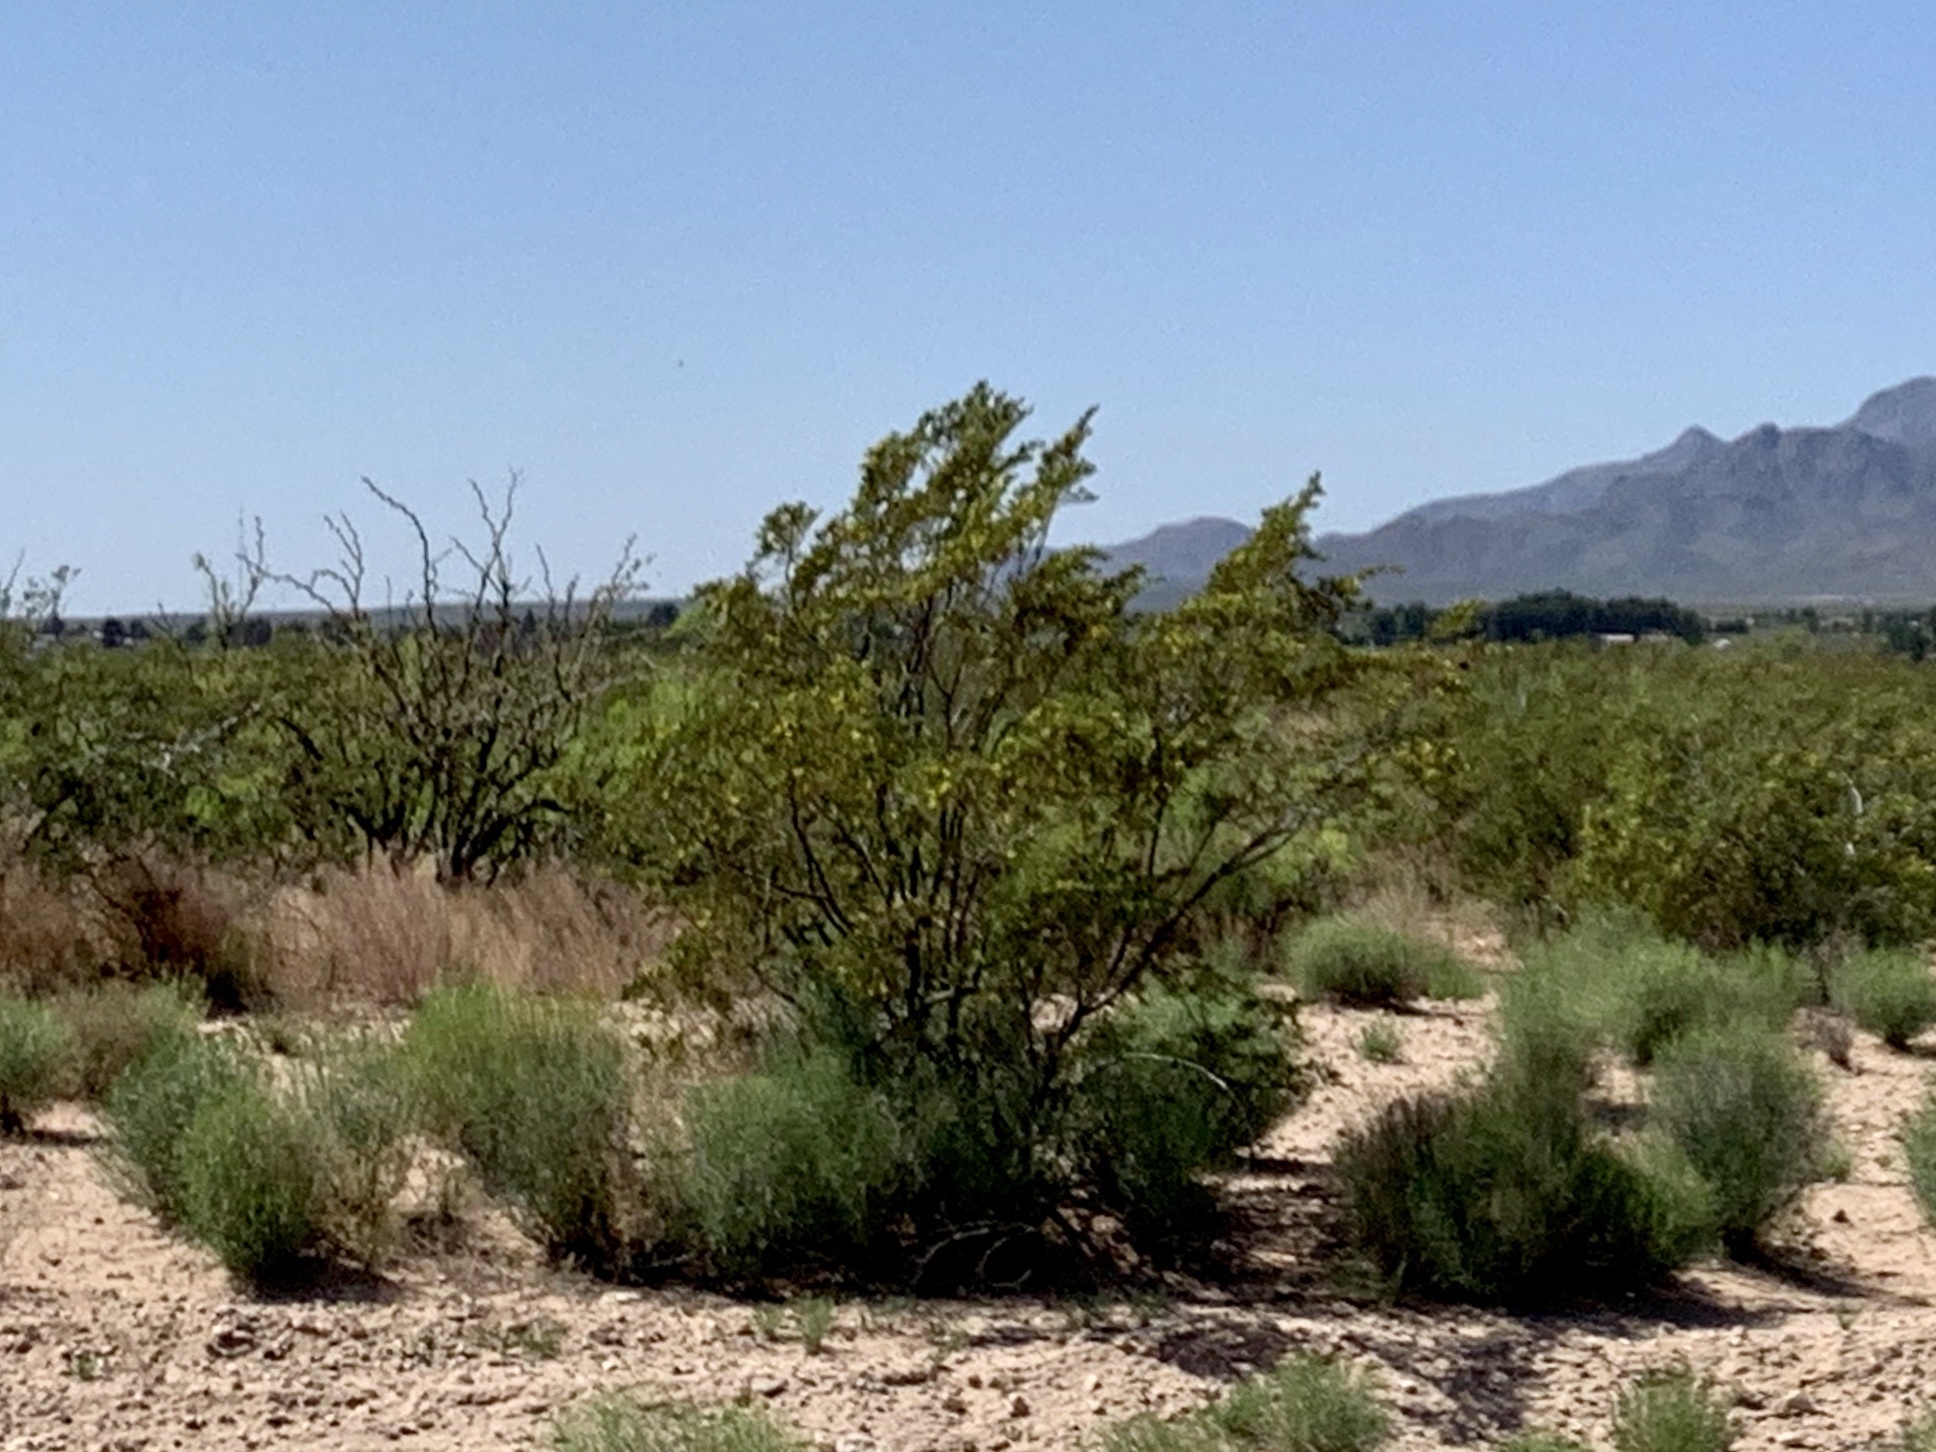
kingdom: Plantae
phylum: Tracheophyta
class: Magnoliopsida
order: Zygophyllales
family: Zygophyllaceae
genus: Larrea
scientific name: Larrea tridentata
